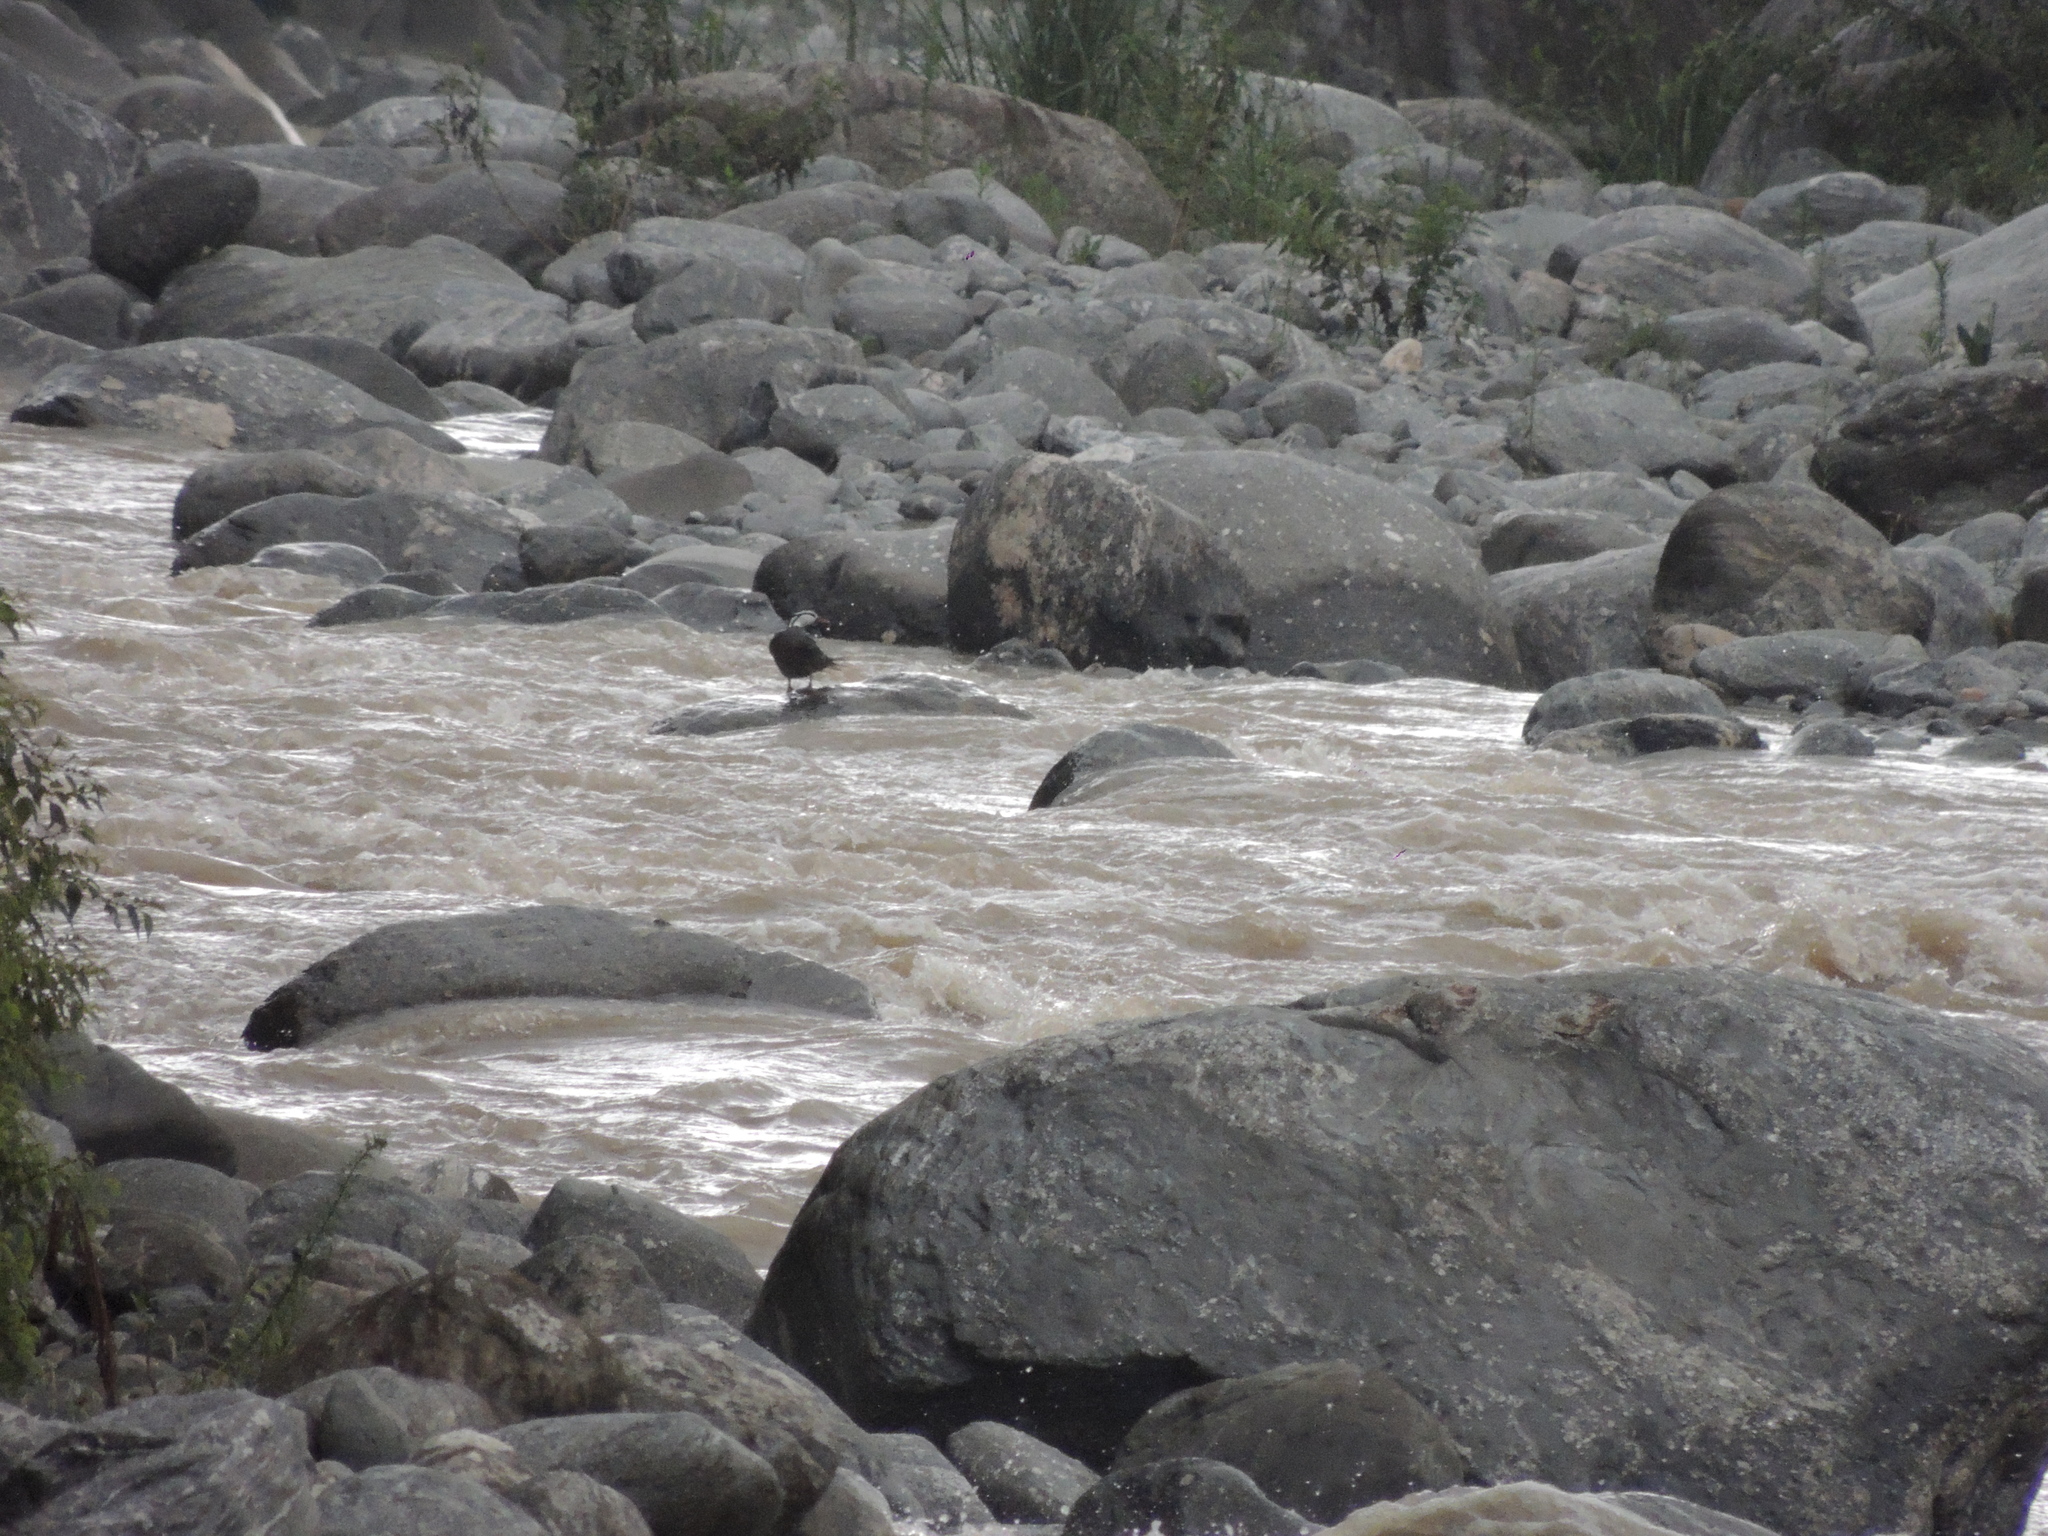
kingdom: Animalia
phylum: Chordata
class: Aves
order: Anseriformes
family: Anatidae
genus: Merganetta
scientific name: Merganetta armata
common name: Torrent duck
